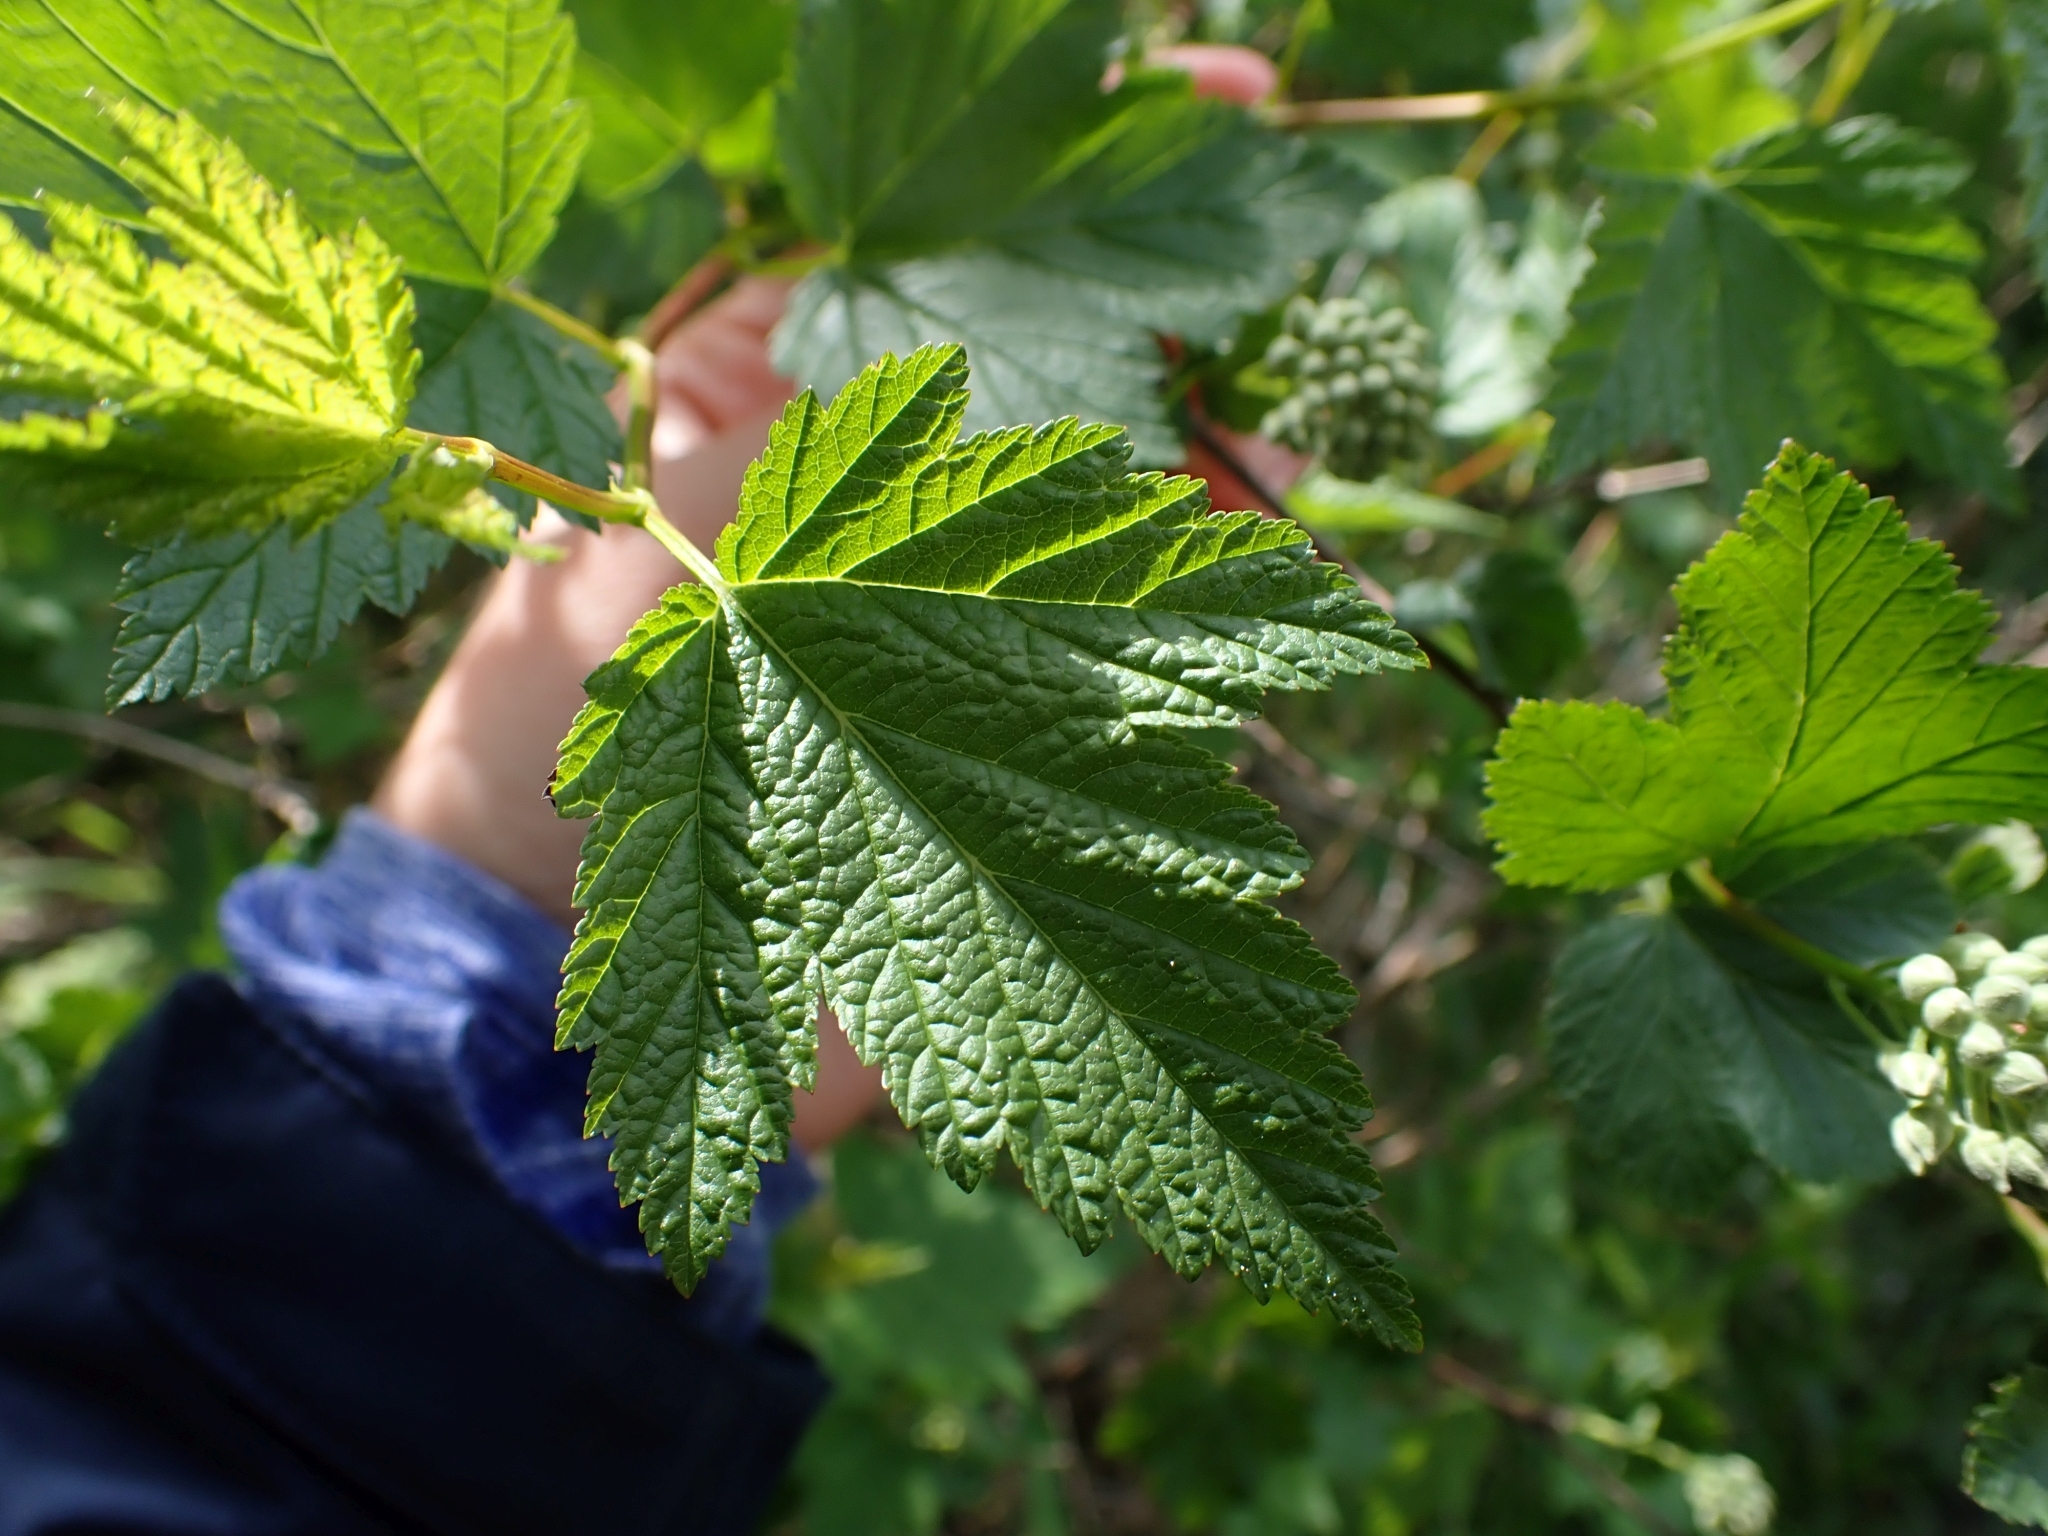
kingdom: Plantae
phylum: Tracheophyta
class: Magnoliopsida
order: Rosales
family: Rosaceae
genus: Physocarpus
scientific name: Physocarpus capitatus
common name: Pacific ninebark
